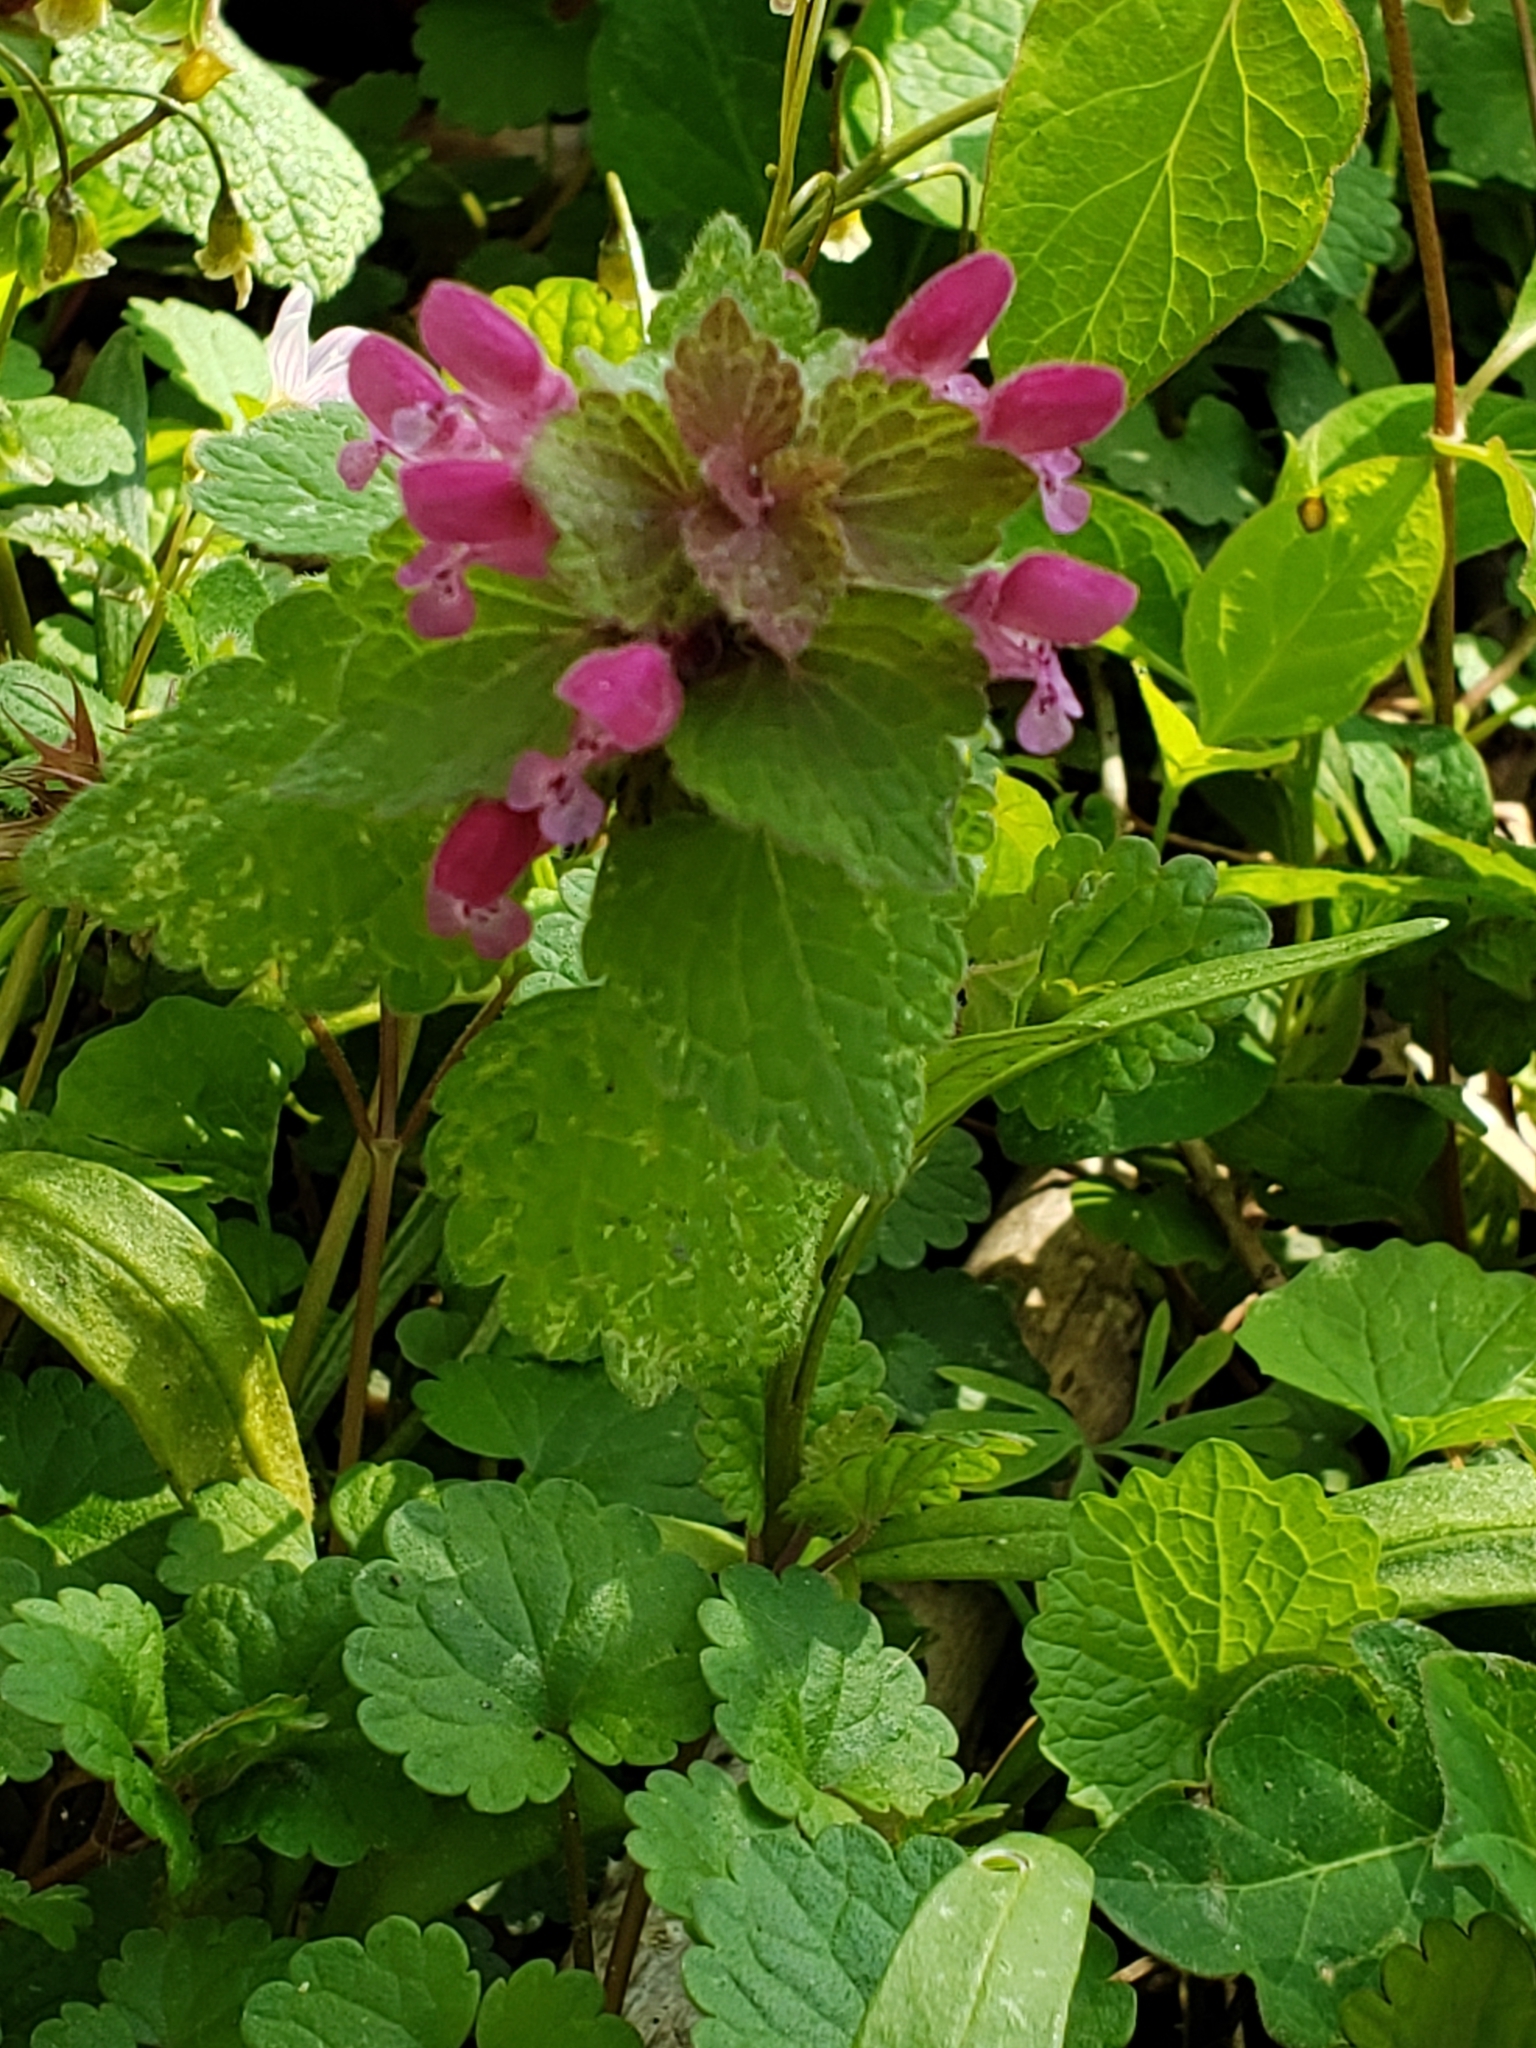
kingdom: Plantae
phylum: Tracheophyta
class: Magnoliopsida
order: Lamiales
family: Lamiaceae
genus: Lamium
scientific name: Lamium purpureum
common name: Red dead-nettle
